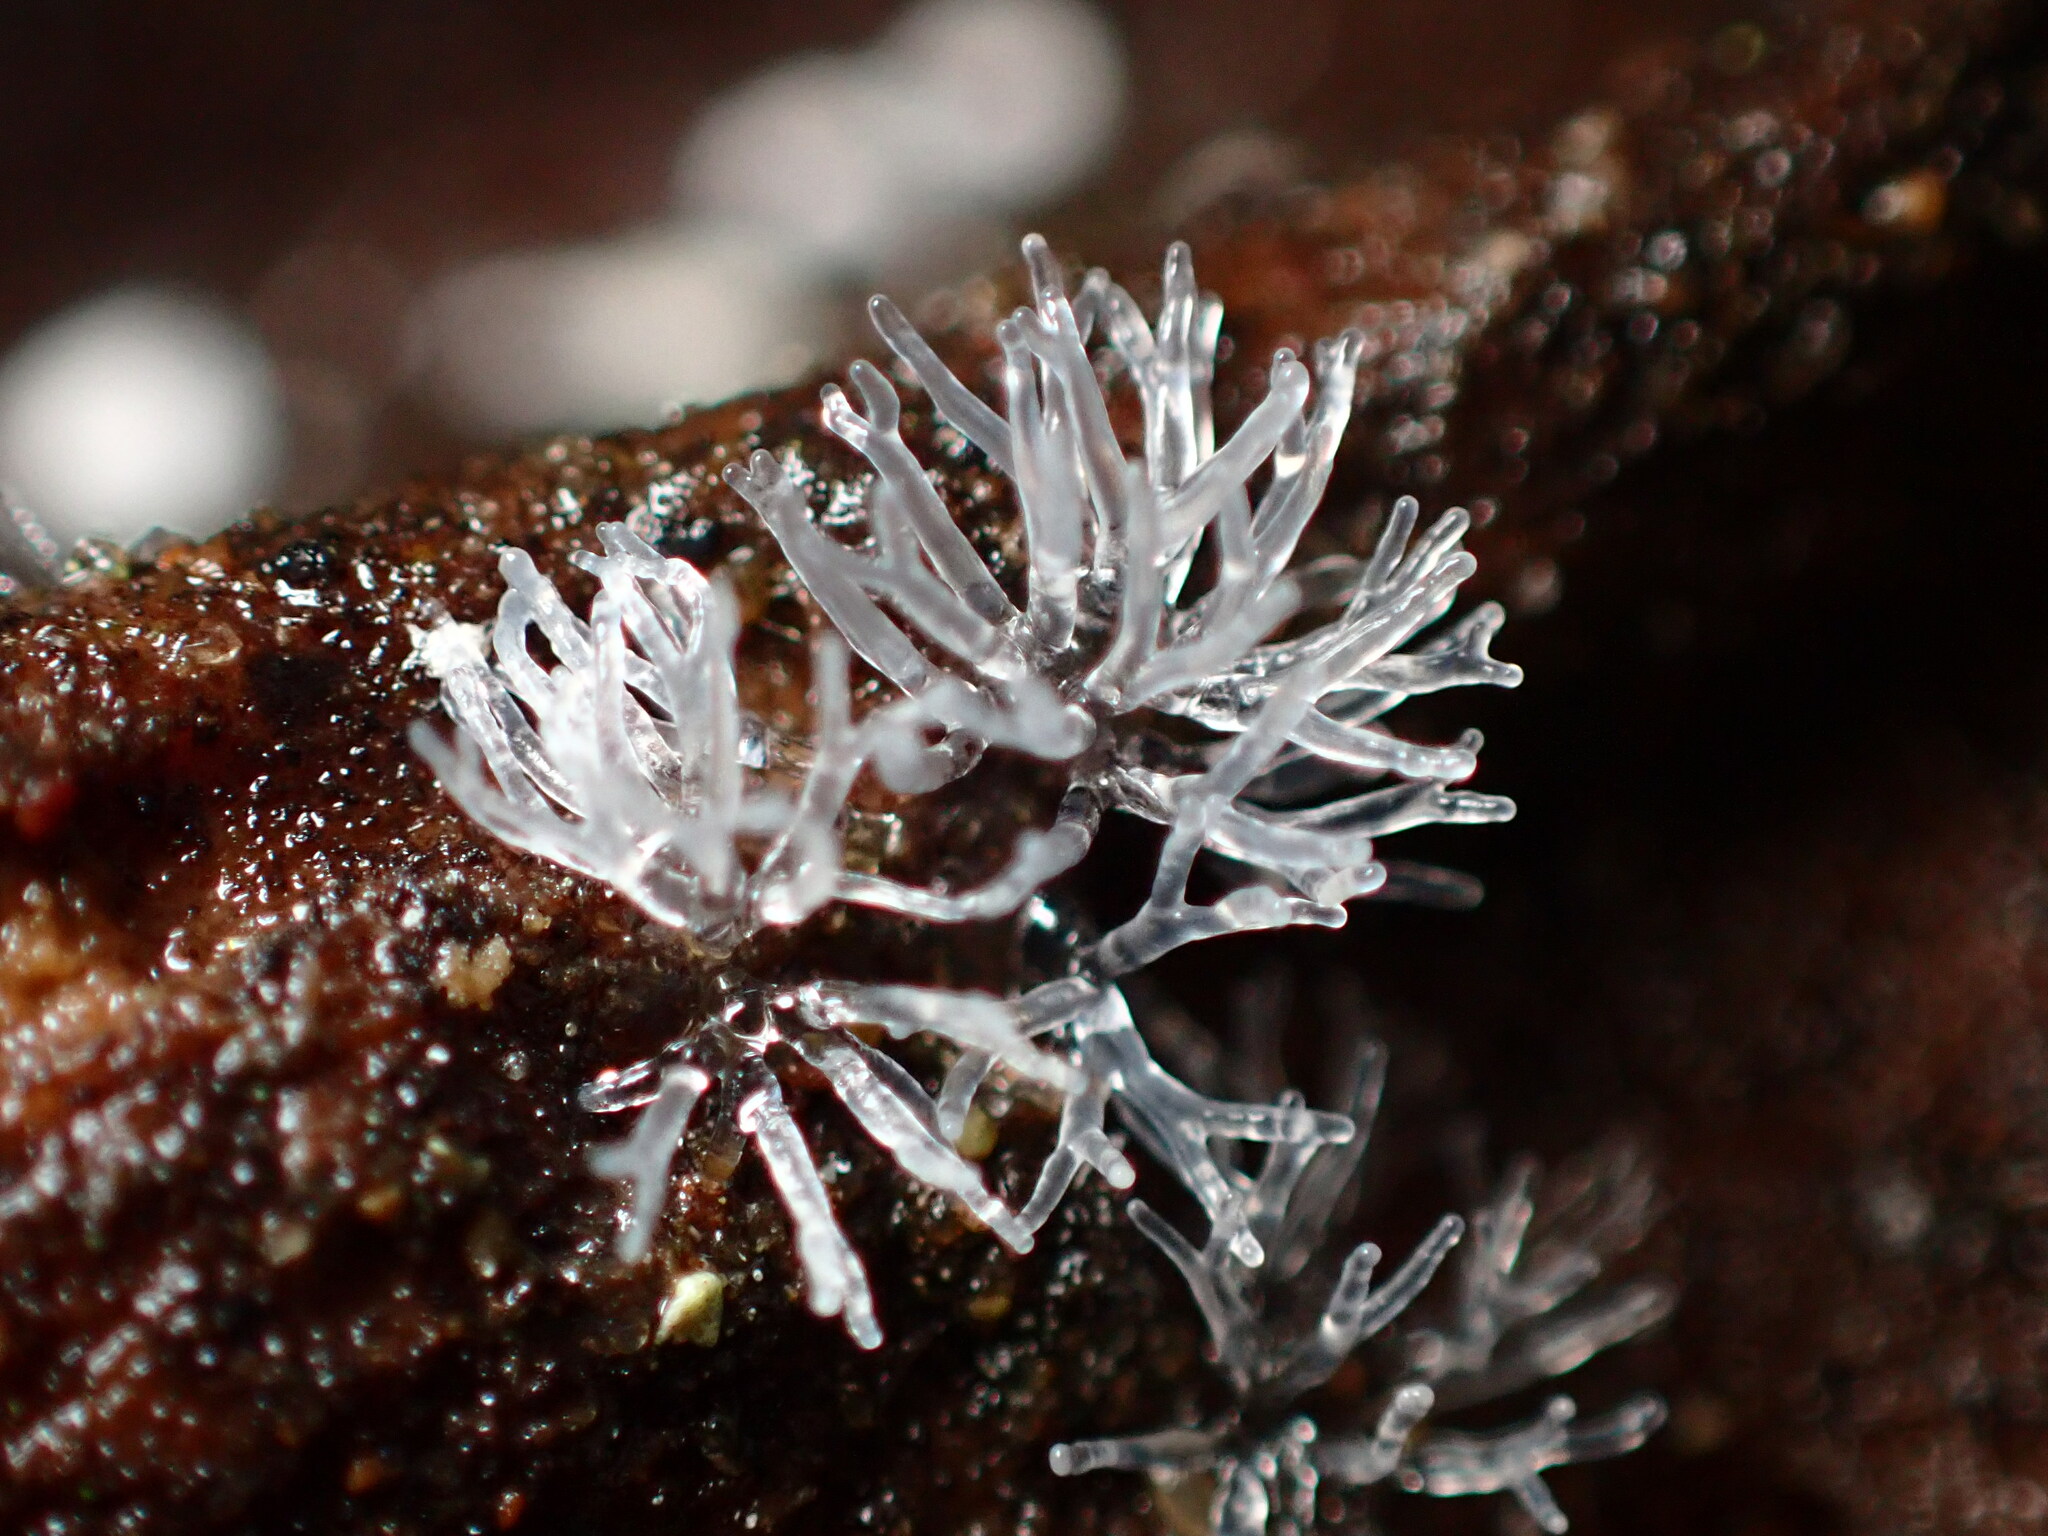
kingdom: Protozoa
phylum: Mycetozoa
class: Protosteliomycetes
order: Ceratiomyxales
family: Ceratiomyxaceae
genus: Ceratiomyxa
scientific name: Ceratiomyxa fruticulosa
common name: Honeycomb coral slime mold
